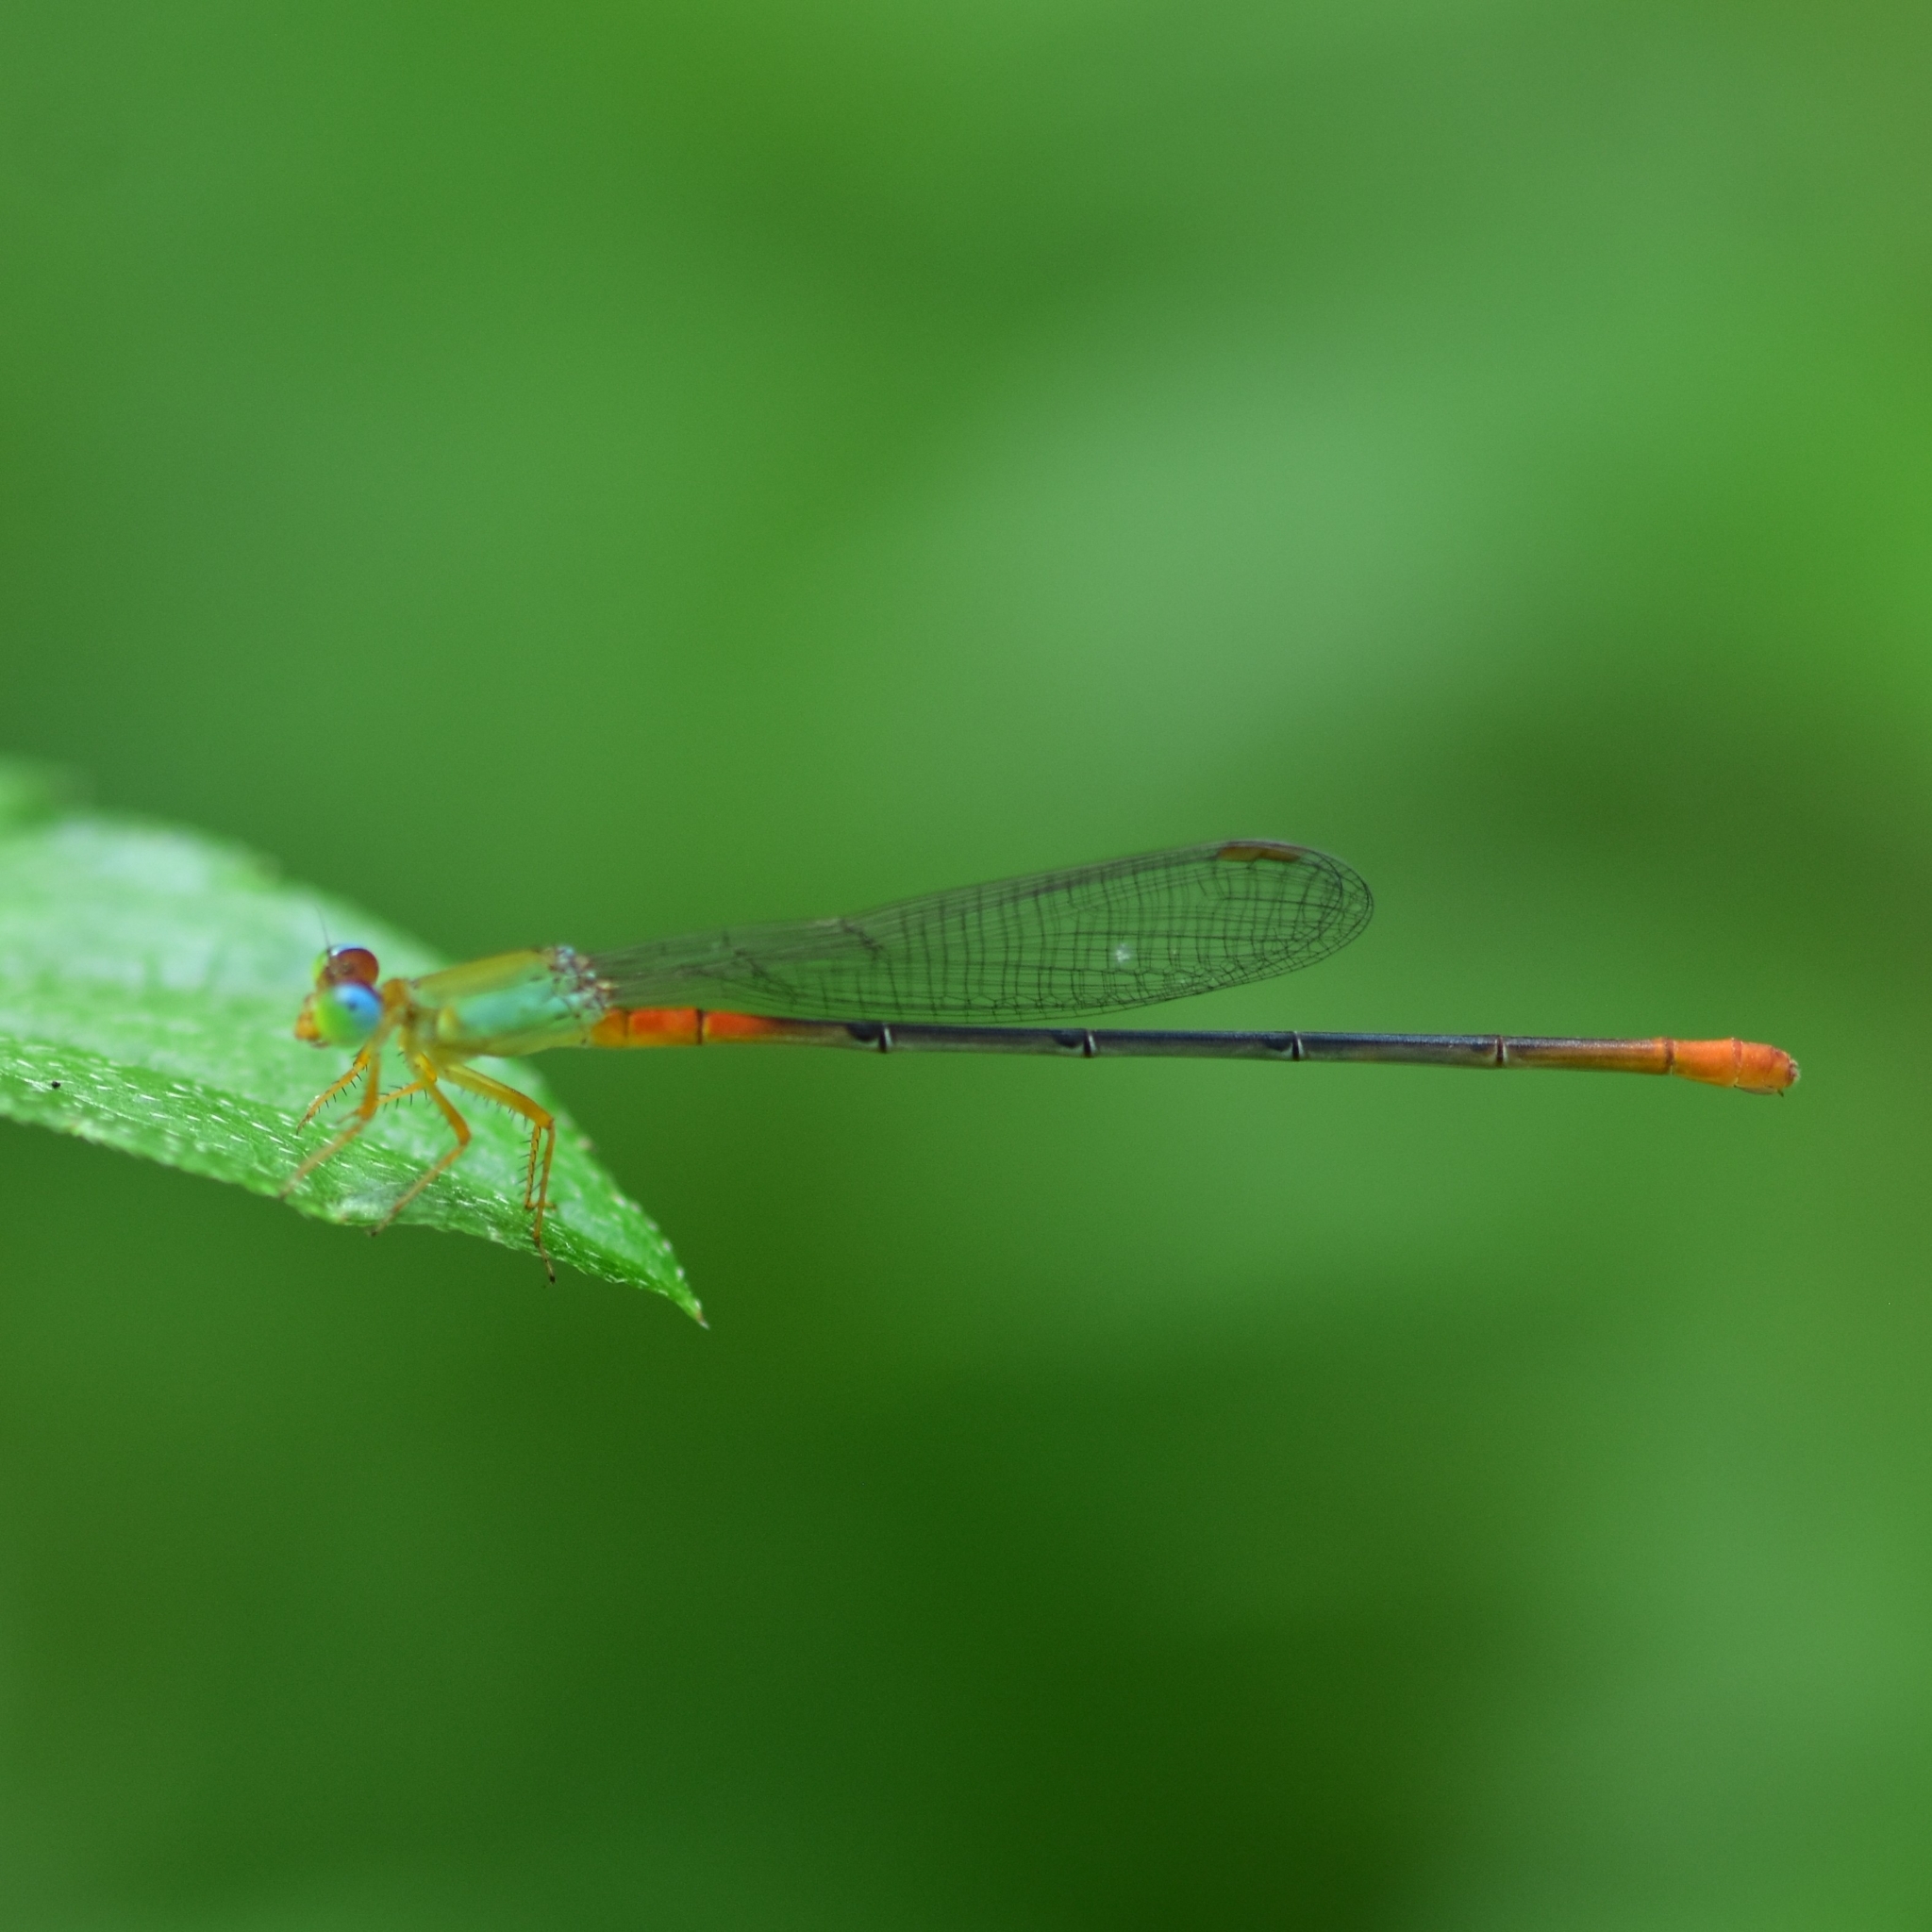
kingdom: Animalia
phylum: Arthropoda
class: Insecta
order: Odonata
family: Coenagrionidae
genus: Ceriagrion
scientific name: Ceriagrion cerinorubellum
